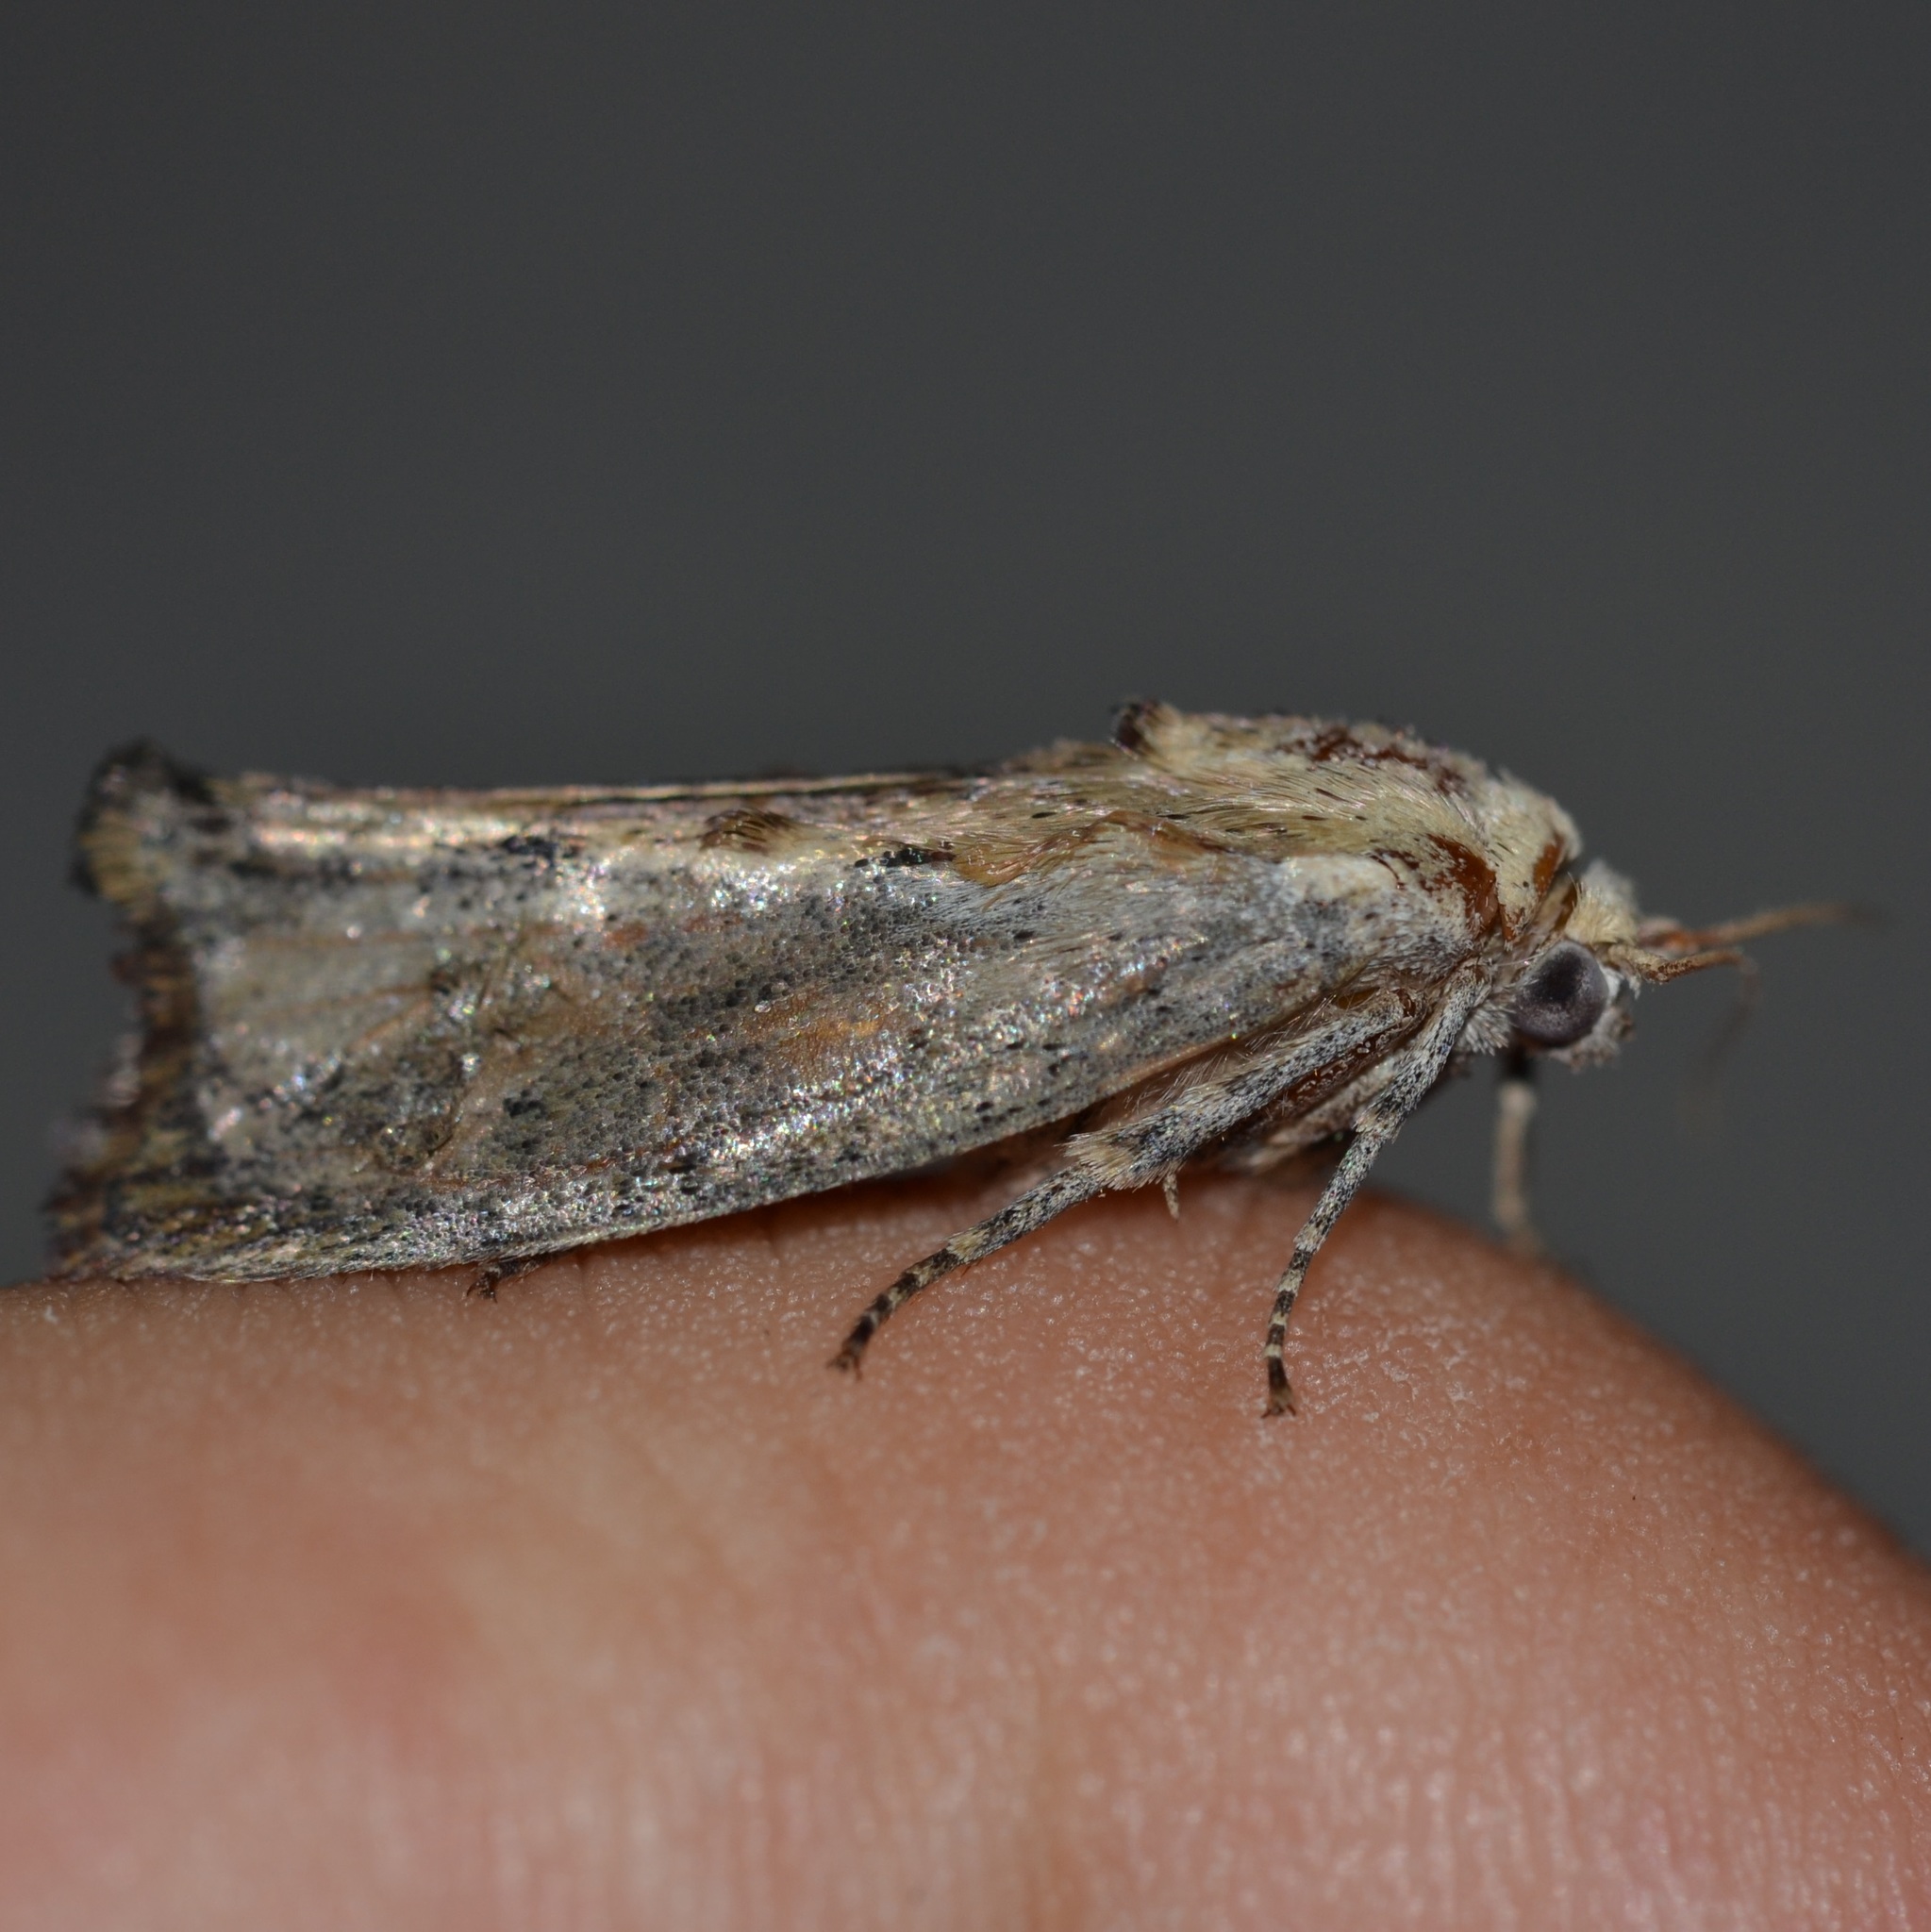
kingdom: Animalia
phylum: Arthropoda
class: Insecta
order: Lepidoptera
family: Pyralidae
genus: Galleria
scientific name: Galleria mellonella
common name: Greater wax moth
